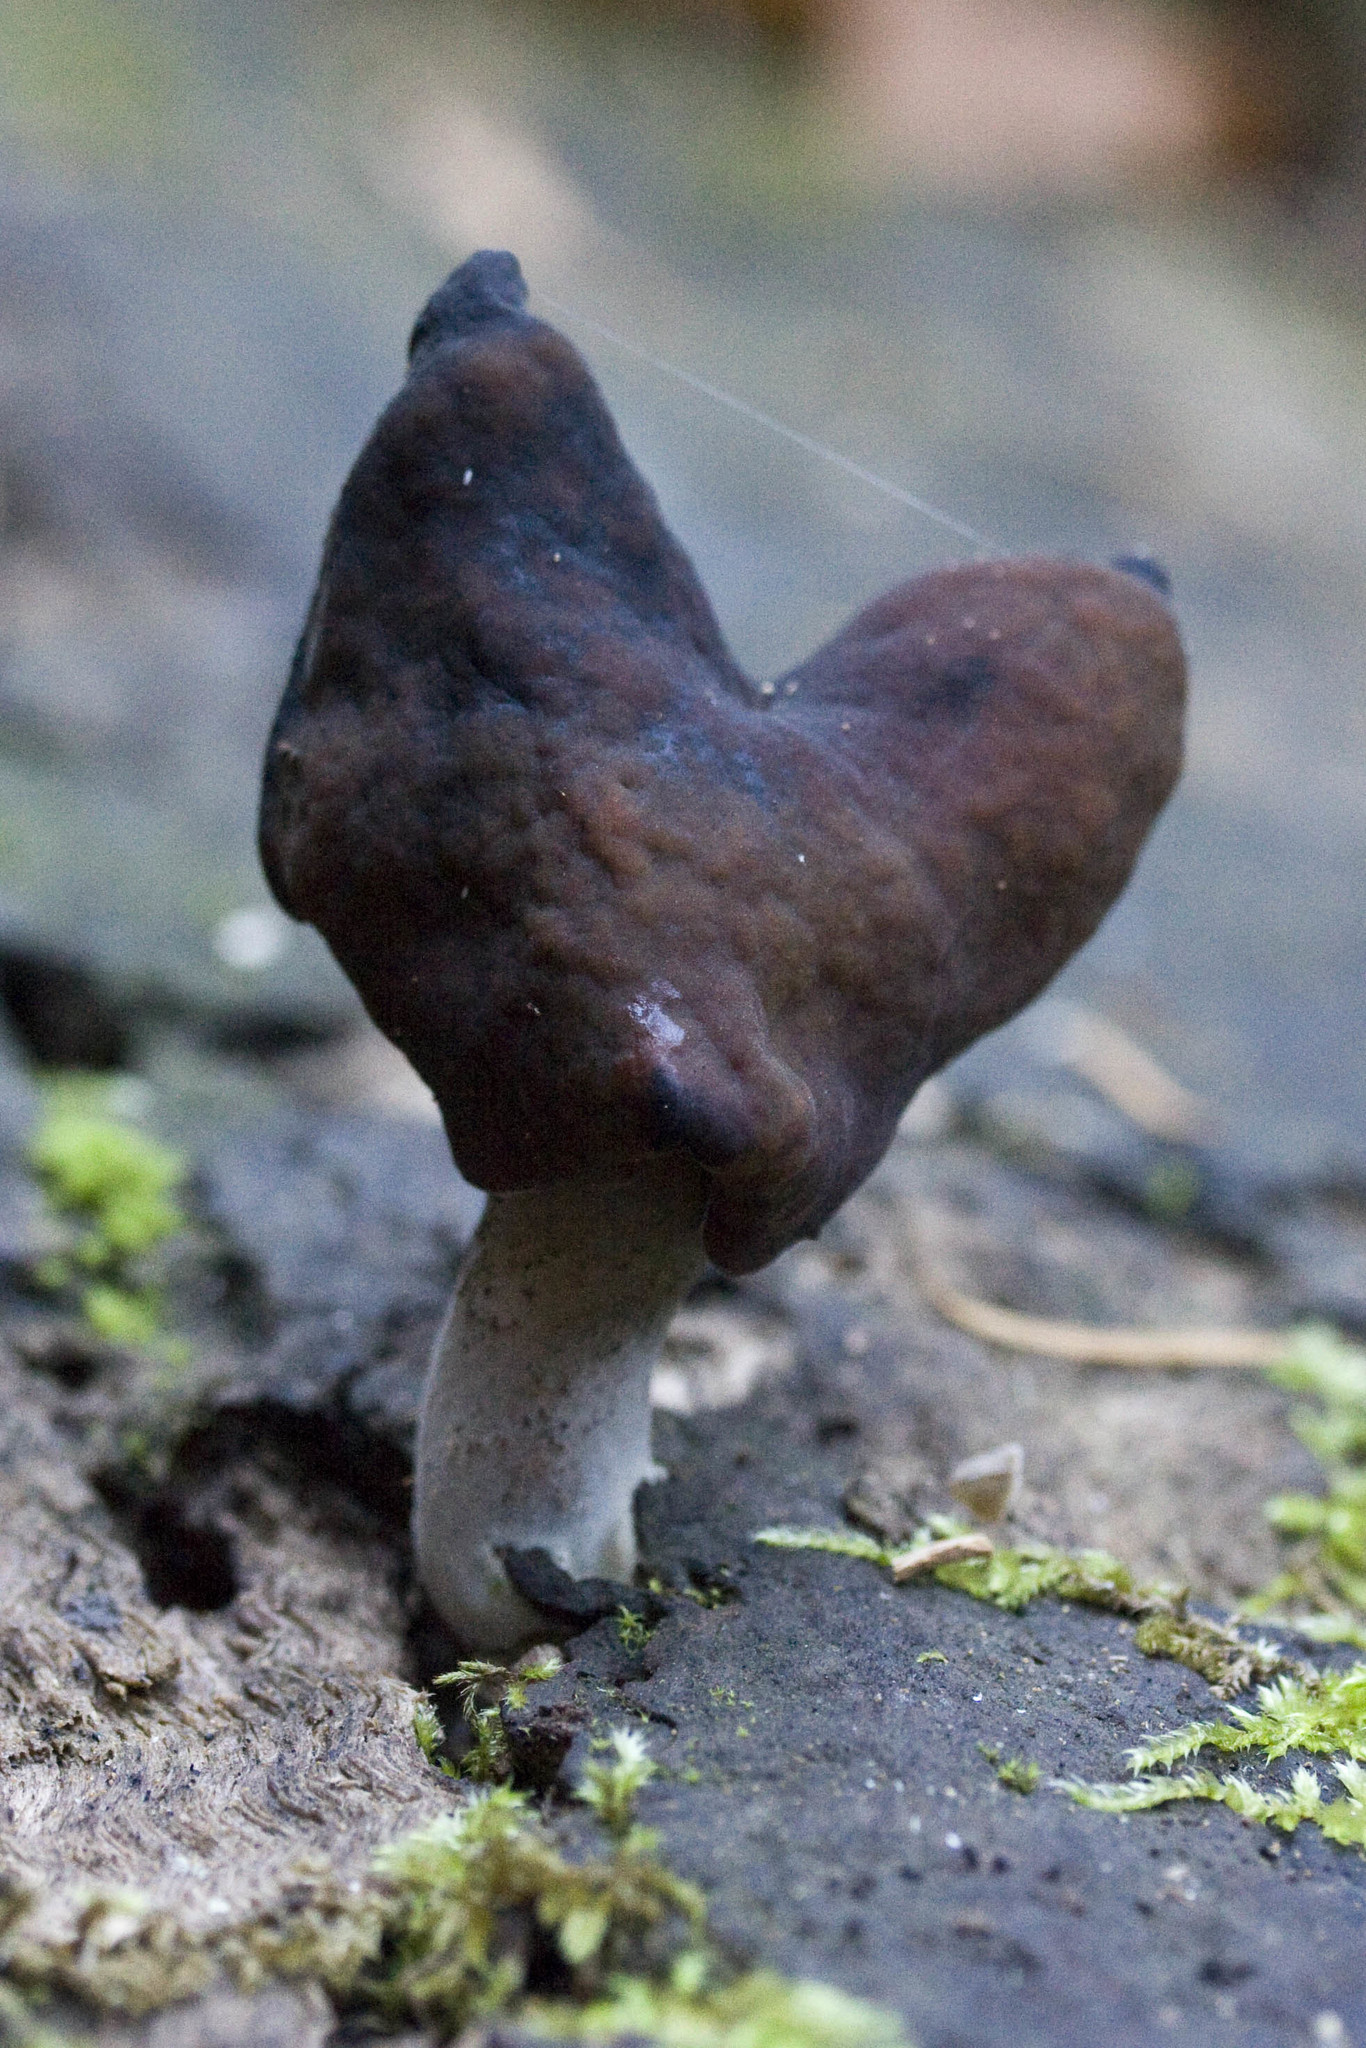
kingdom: Fungi
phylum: Ascomycota
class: Pezizomycetes
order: Pezizales
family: Discinaceae
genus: Gyromitra
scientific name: Gyromitra infula
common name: Pouched false morel
